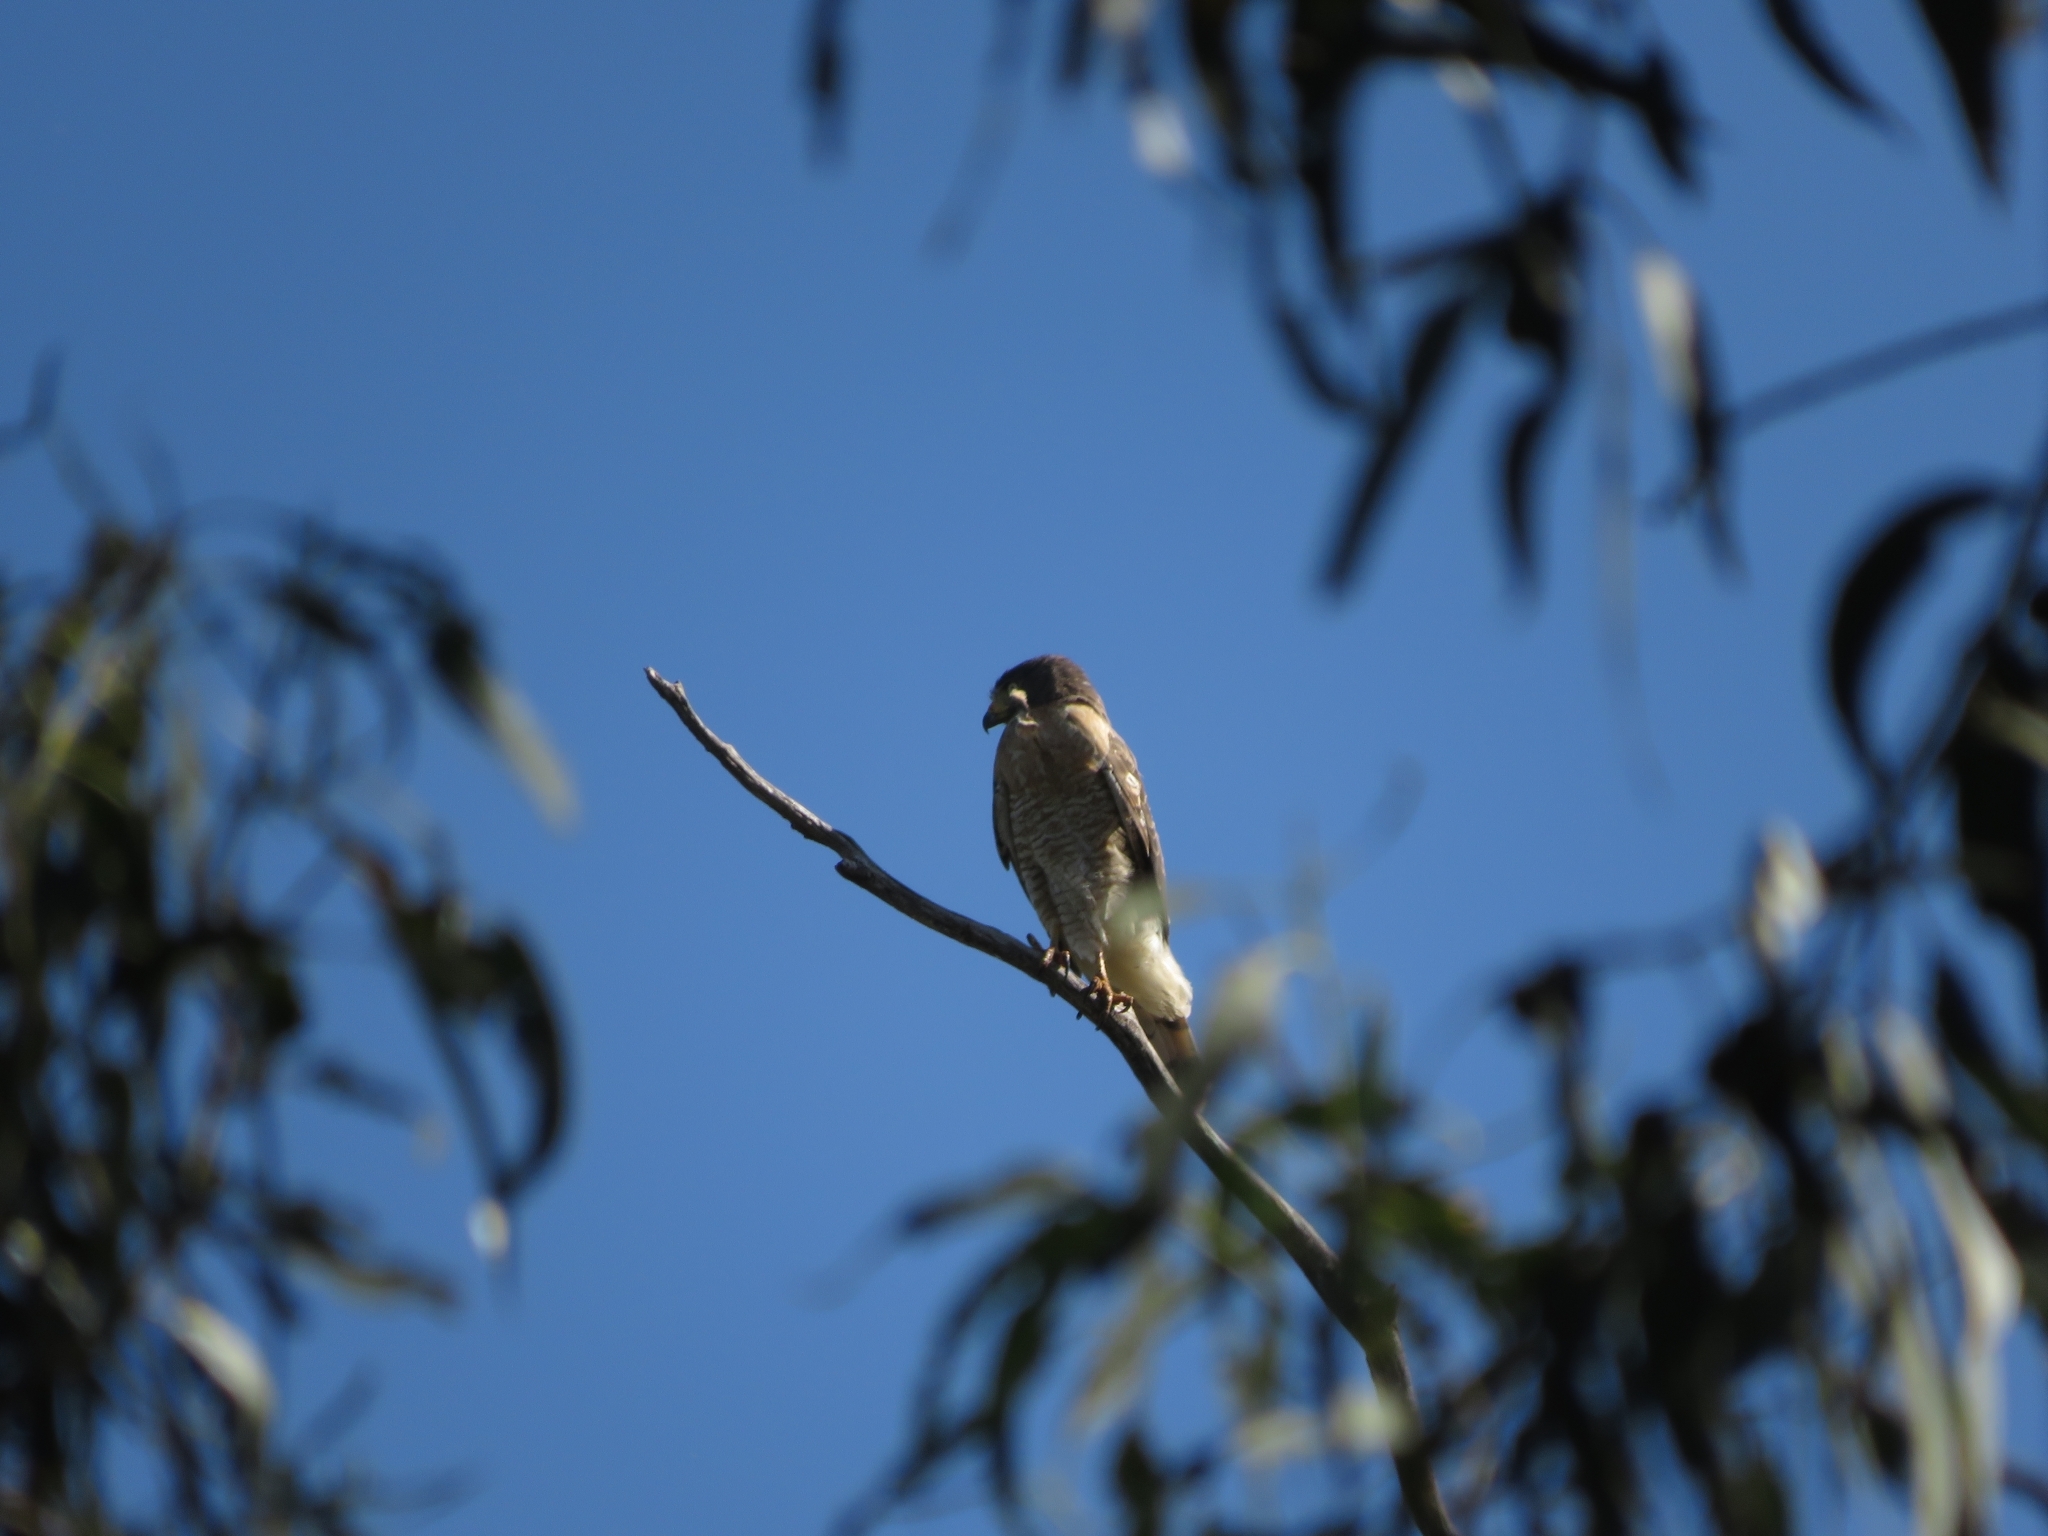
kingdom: Animalia
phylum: Chordata
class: Aves
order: Accipitriformes
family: Accipitridae
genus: Rupornis
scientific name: Rupornis magnirostris
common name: Roadside hawk
